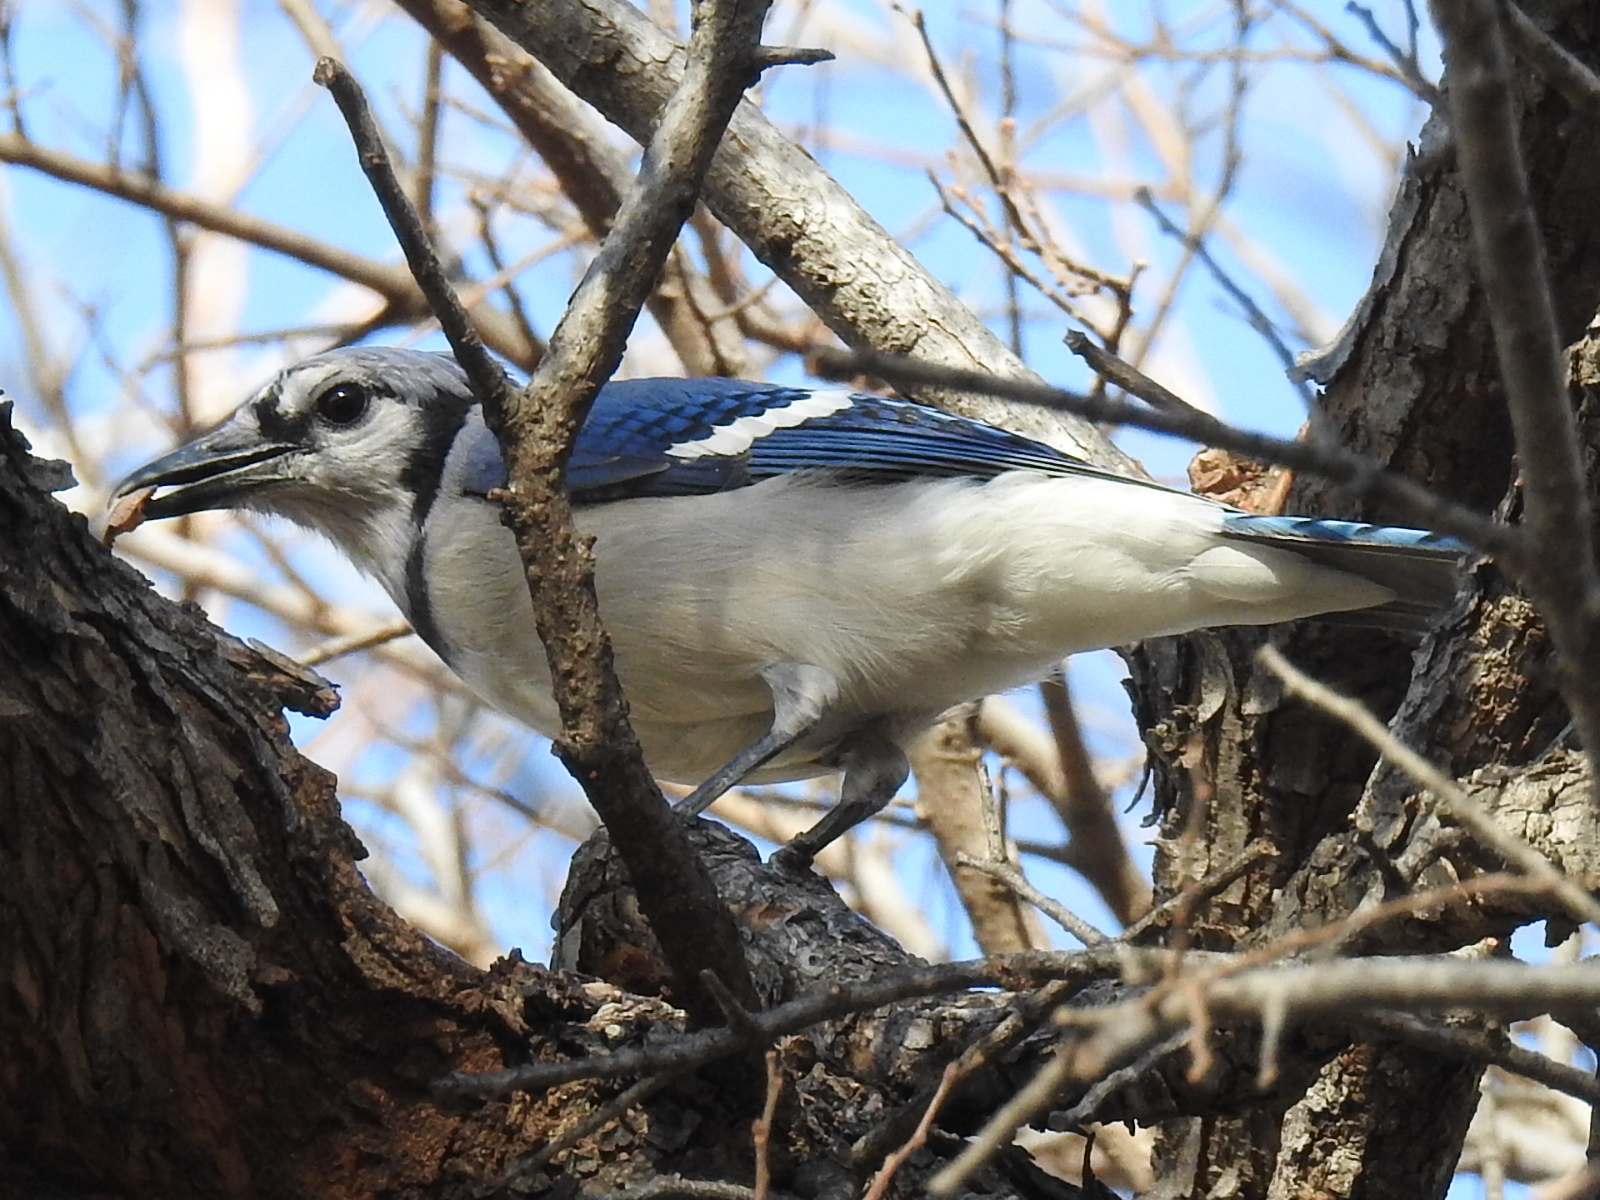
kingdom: Animalia
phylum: Chordata
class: Aves
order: Passeriformes
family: Corvidae
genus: Cyanocitta
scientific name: Cyanocitta cristata
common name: Blue jay
